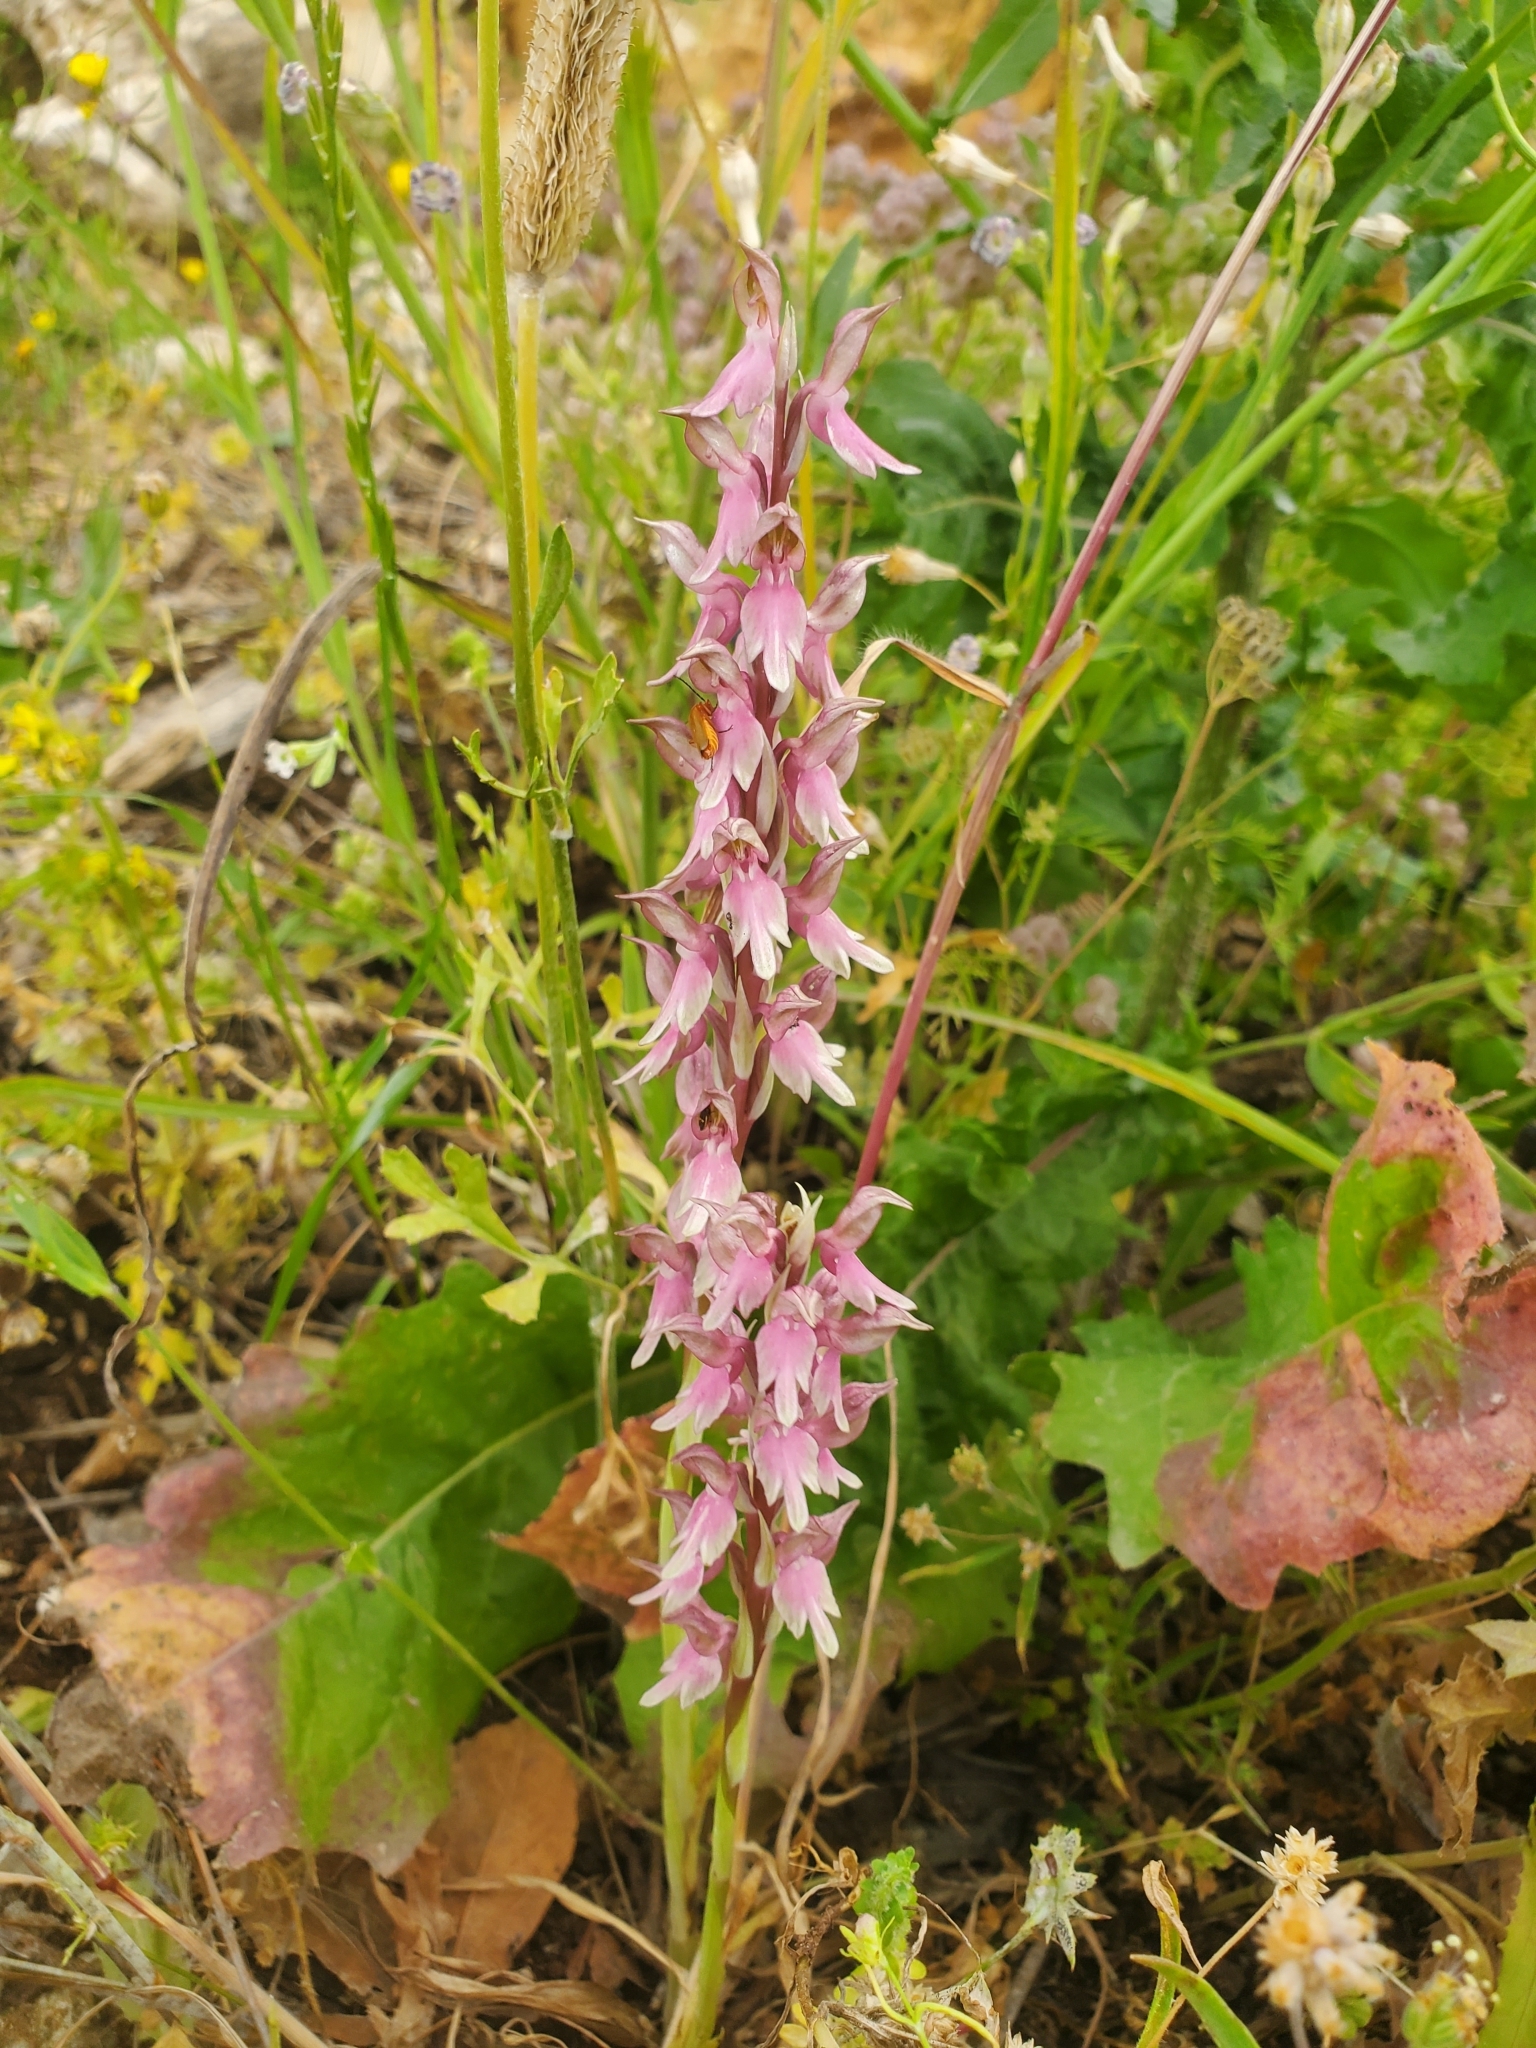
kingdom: Plantae
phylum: Tracheophyta
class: Liliopsida
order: Asparagales
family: Orchidaceae
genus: Anacamptis
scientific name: Anacamptis sancta
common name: Holy orchid
